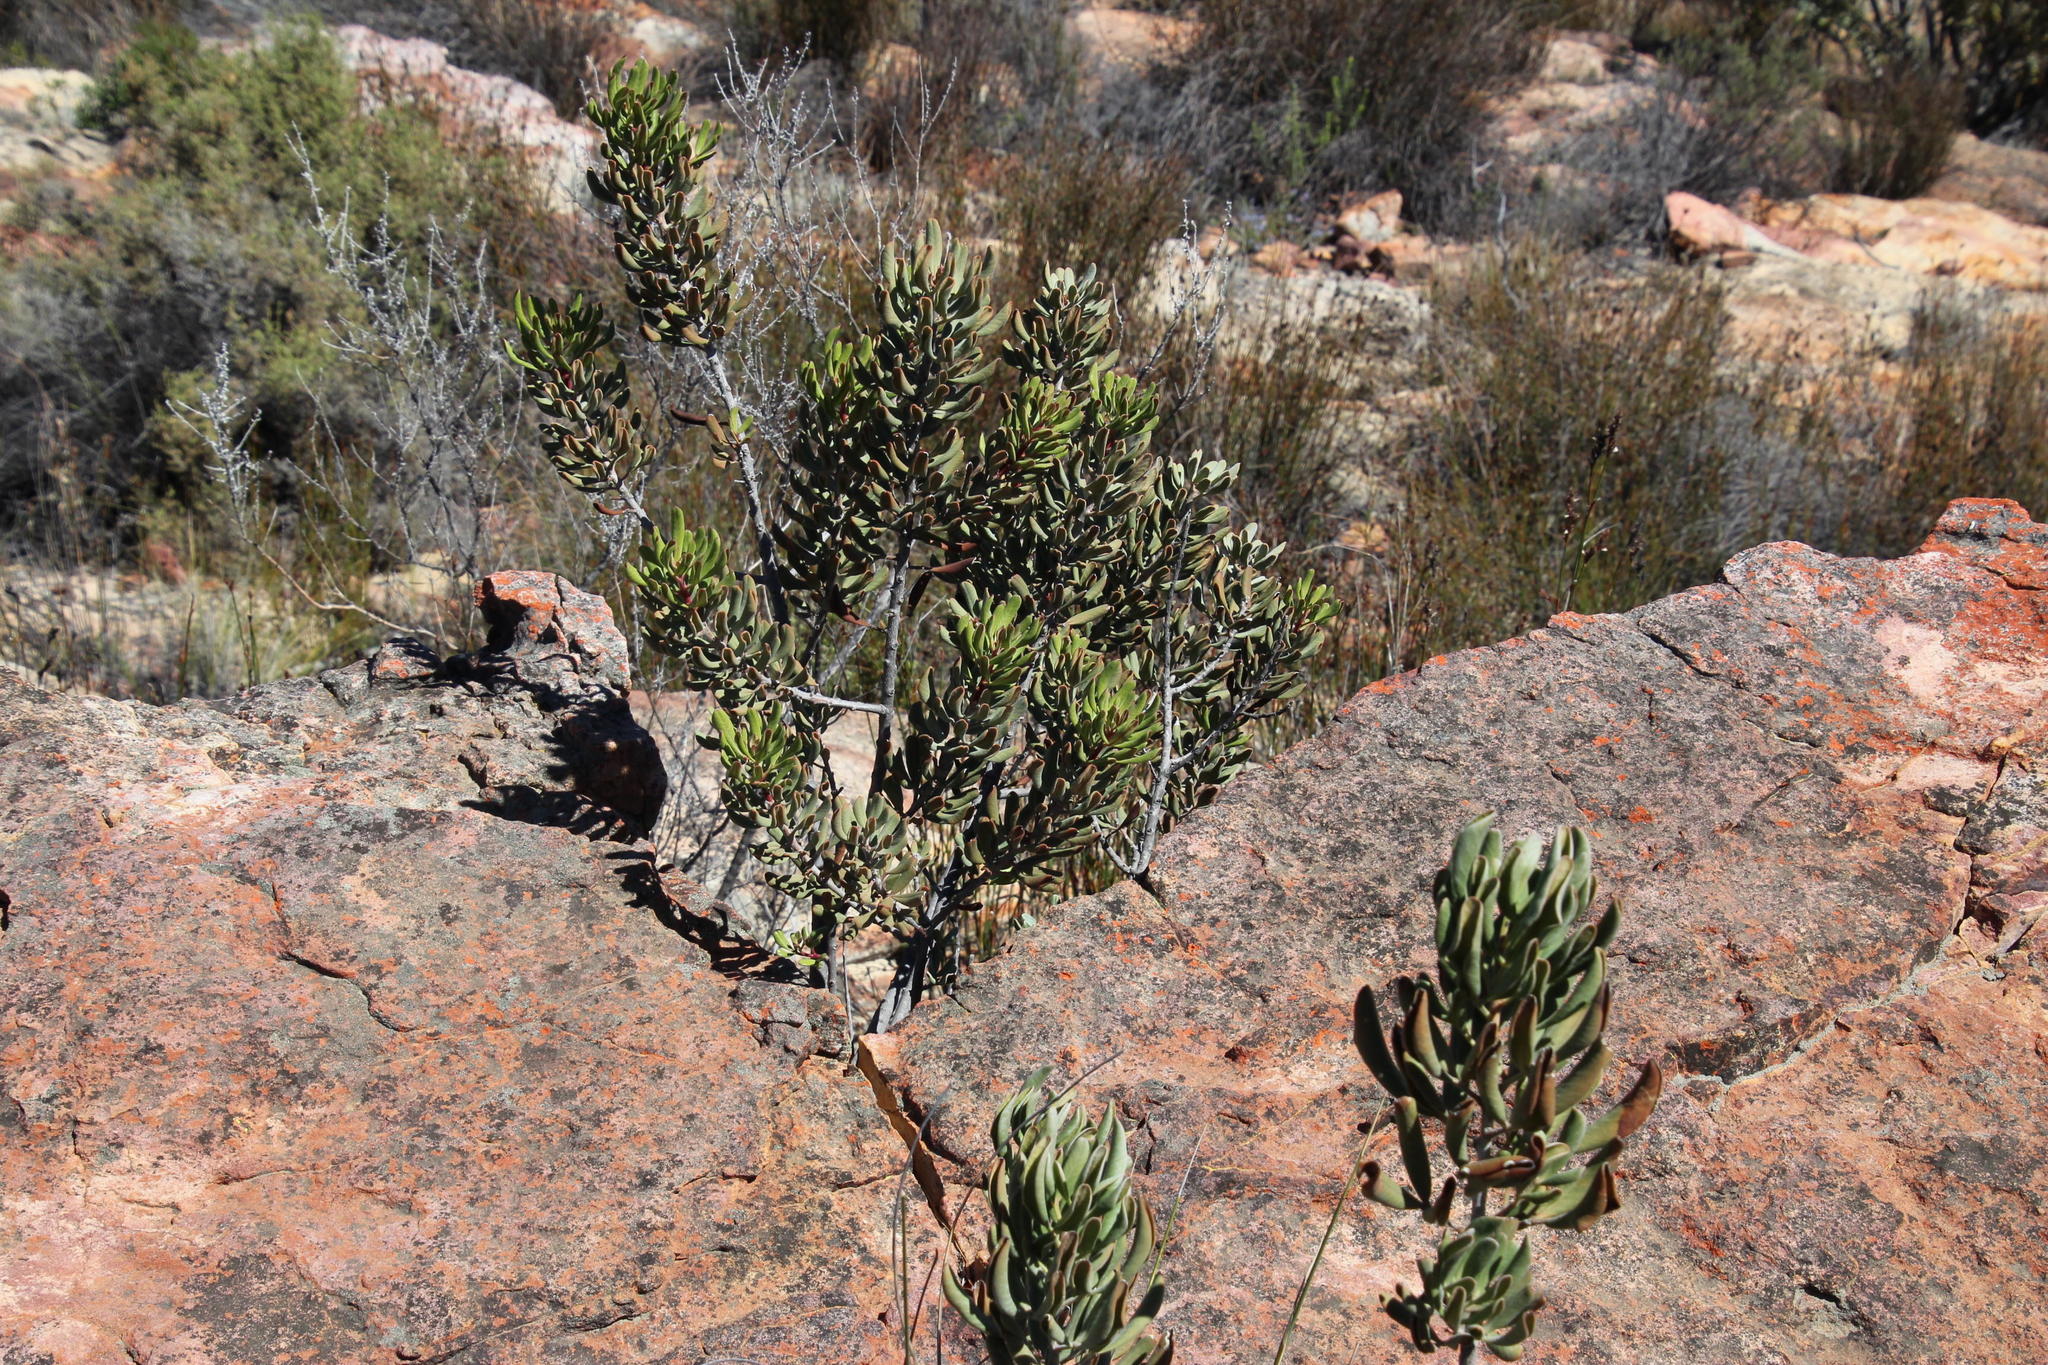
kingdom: Plantae
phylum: Tracheophyta
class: Magnoliopsida
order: Sapindales
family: Anacardiaceae
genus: Searsia
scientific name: Searsia scytophylla
